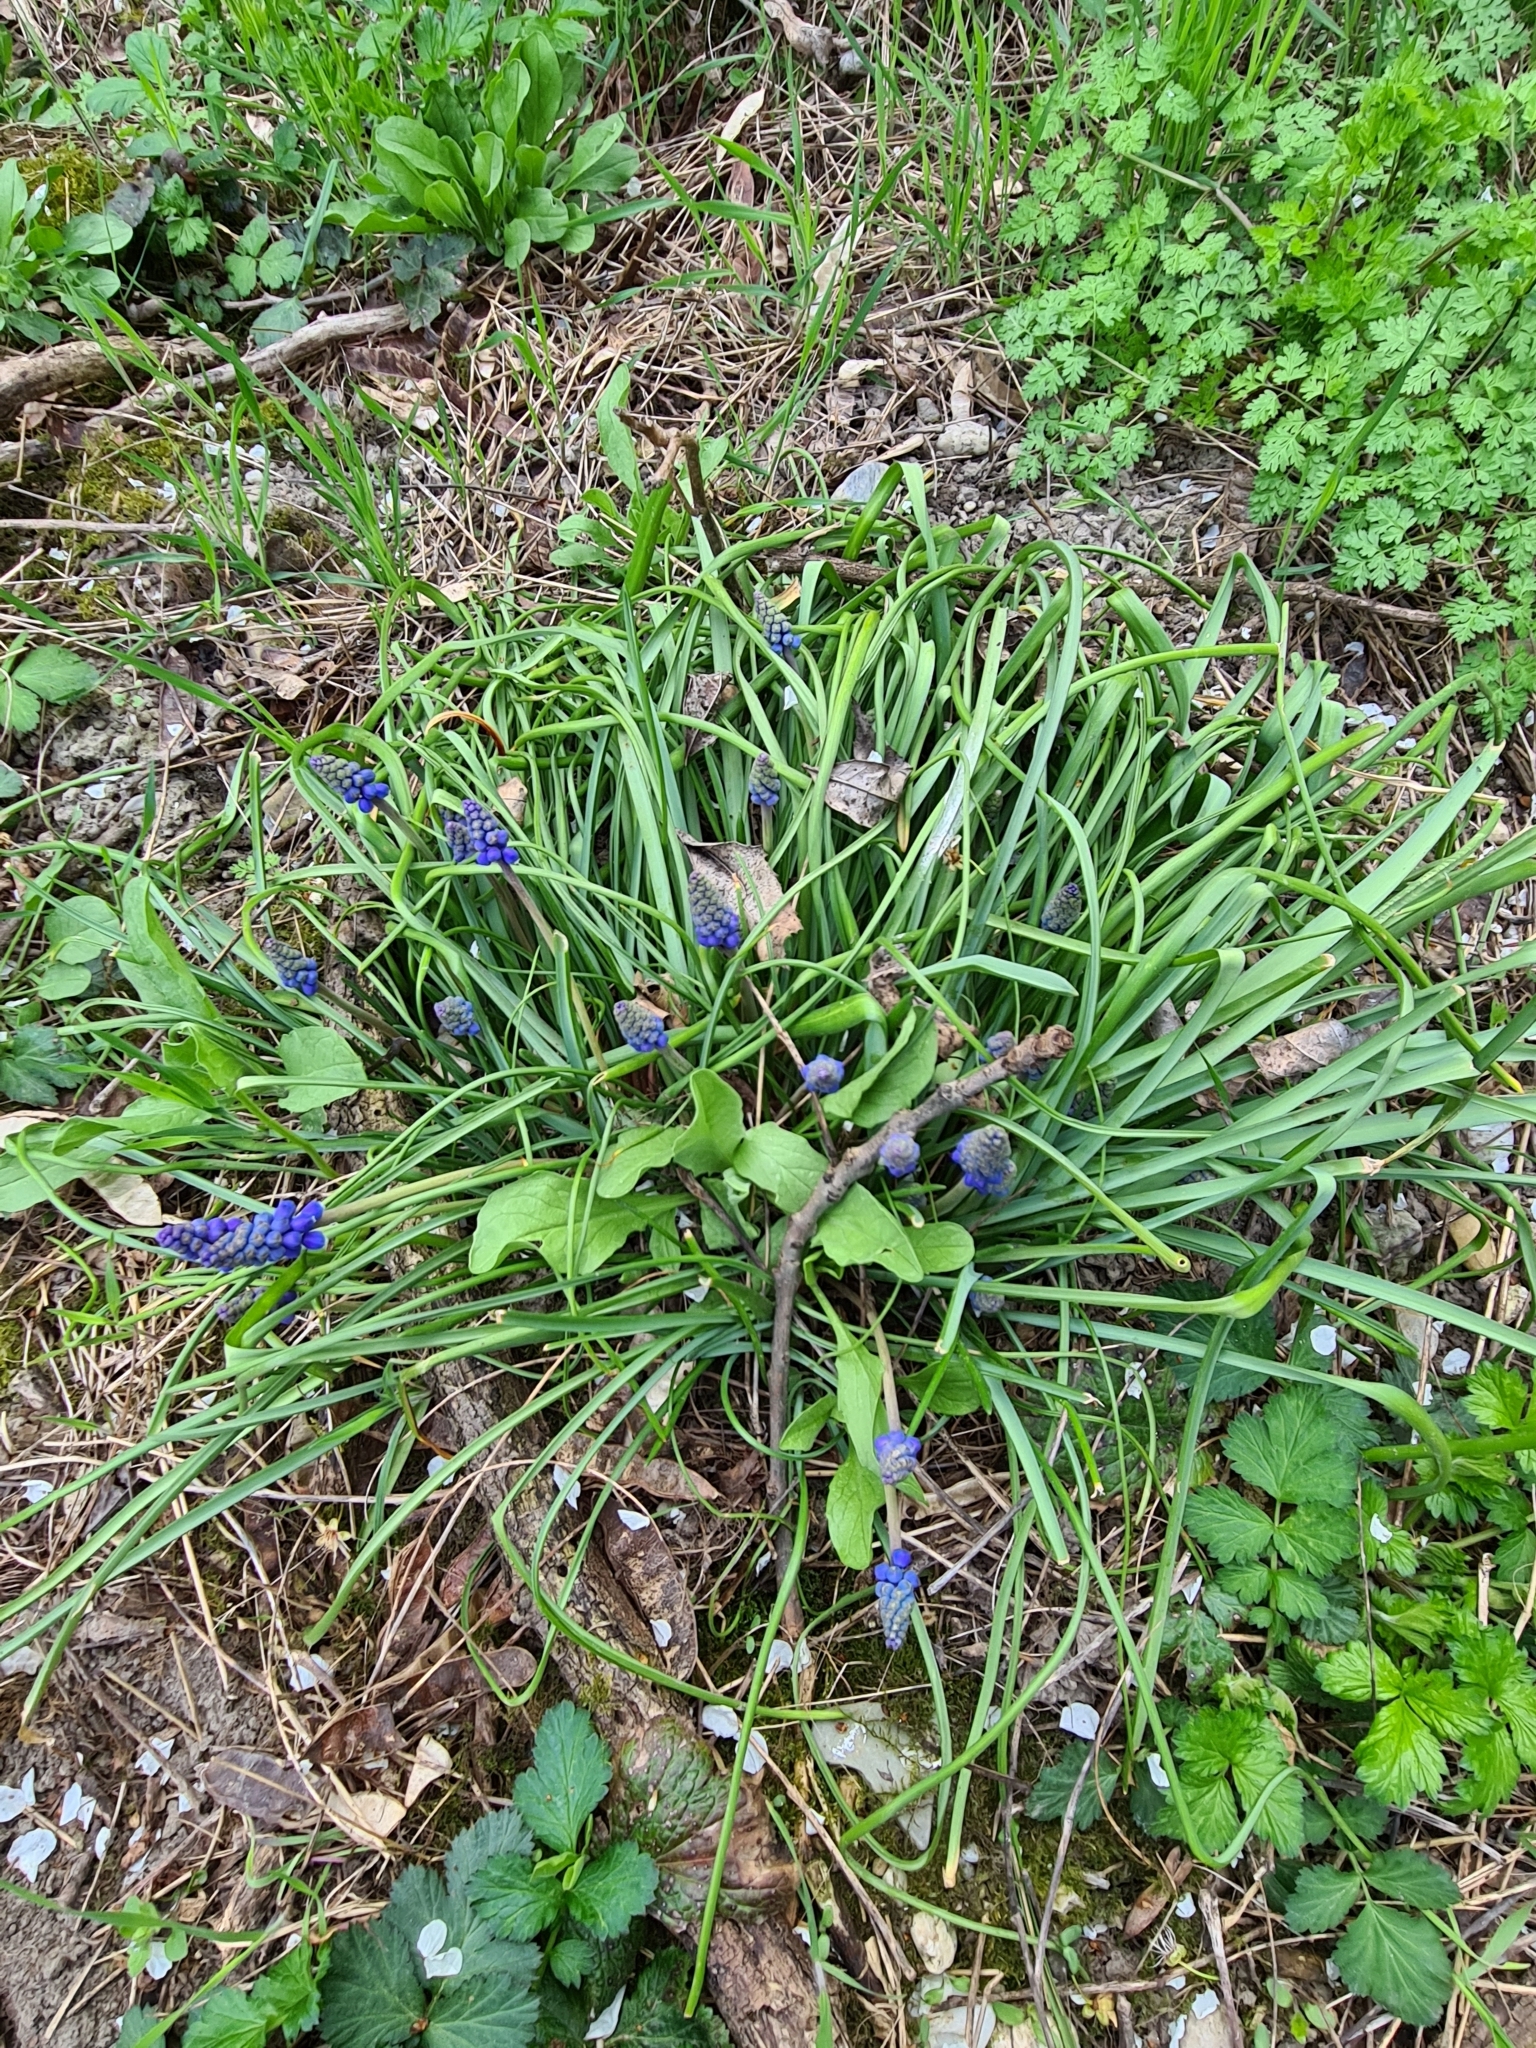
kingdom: Plantae
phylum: Tracheophyta
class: Liliopsida
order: Asparagales
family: Asparagaceae
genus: Muscari
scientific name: Muscari armeniacum
